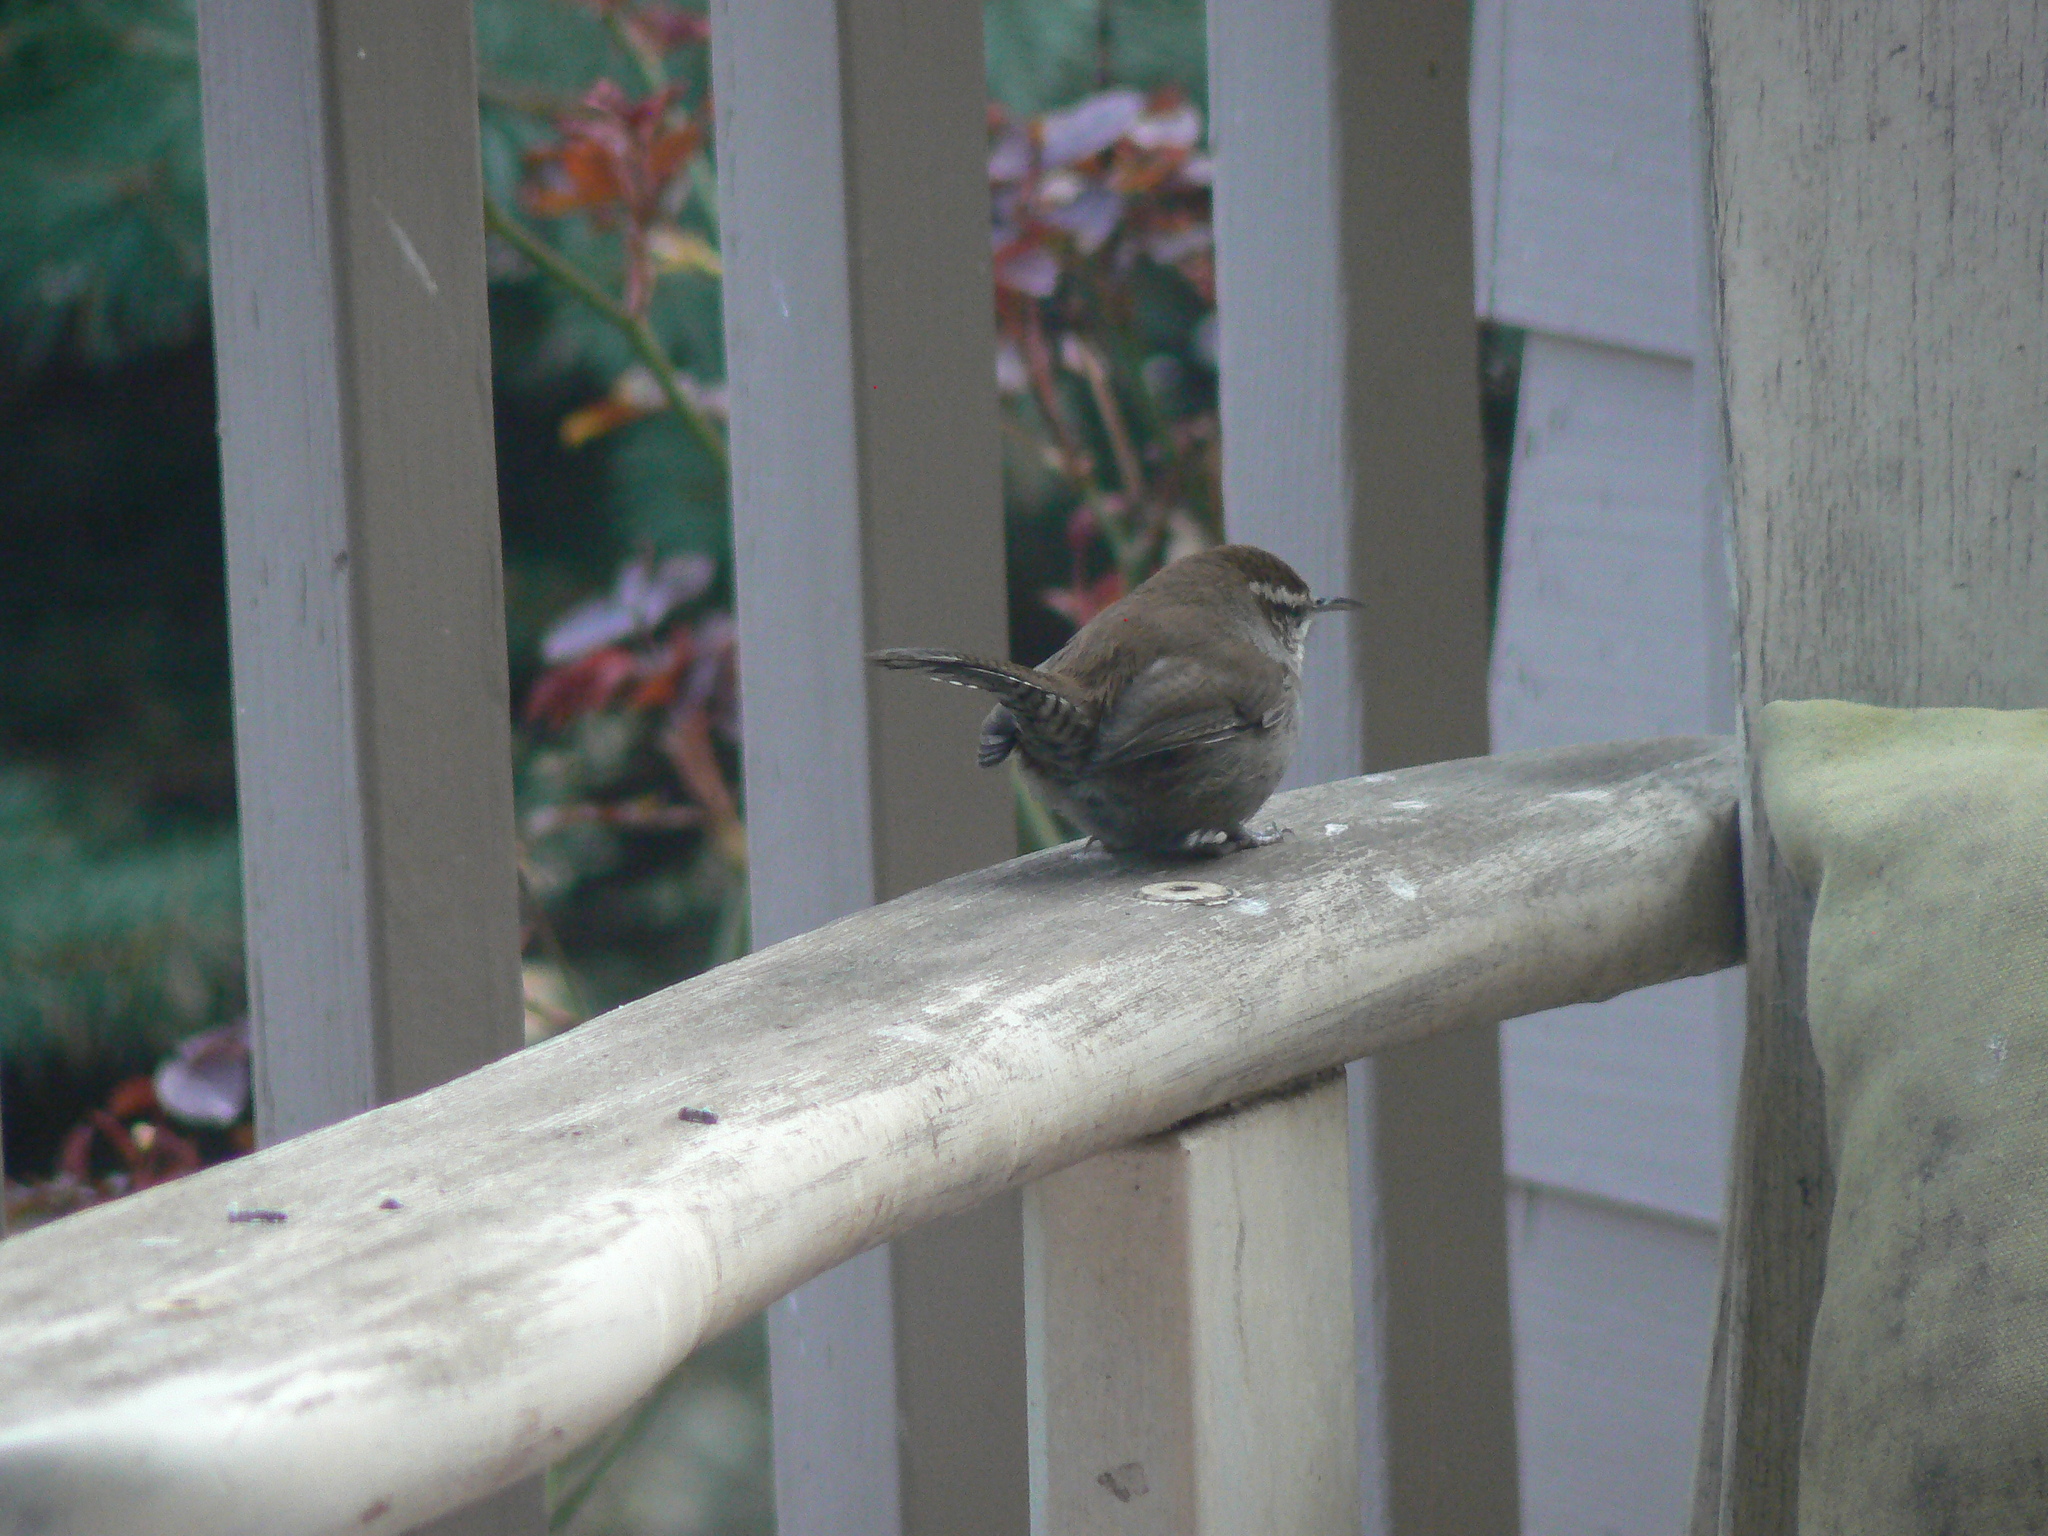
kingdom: Animalia
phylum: Chordata
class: Aves
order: Passeriformes
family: Troglodytidae
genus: Thryomanes
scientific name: Thryomanes bewickii
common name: Bewick's wren
